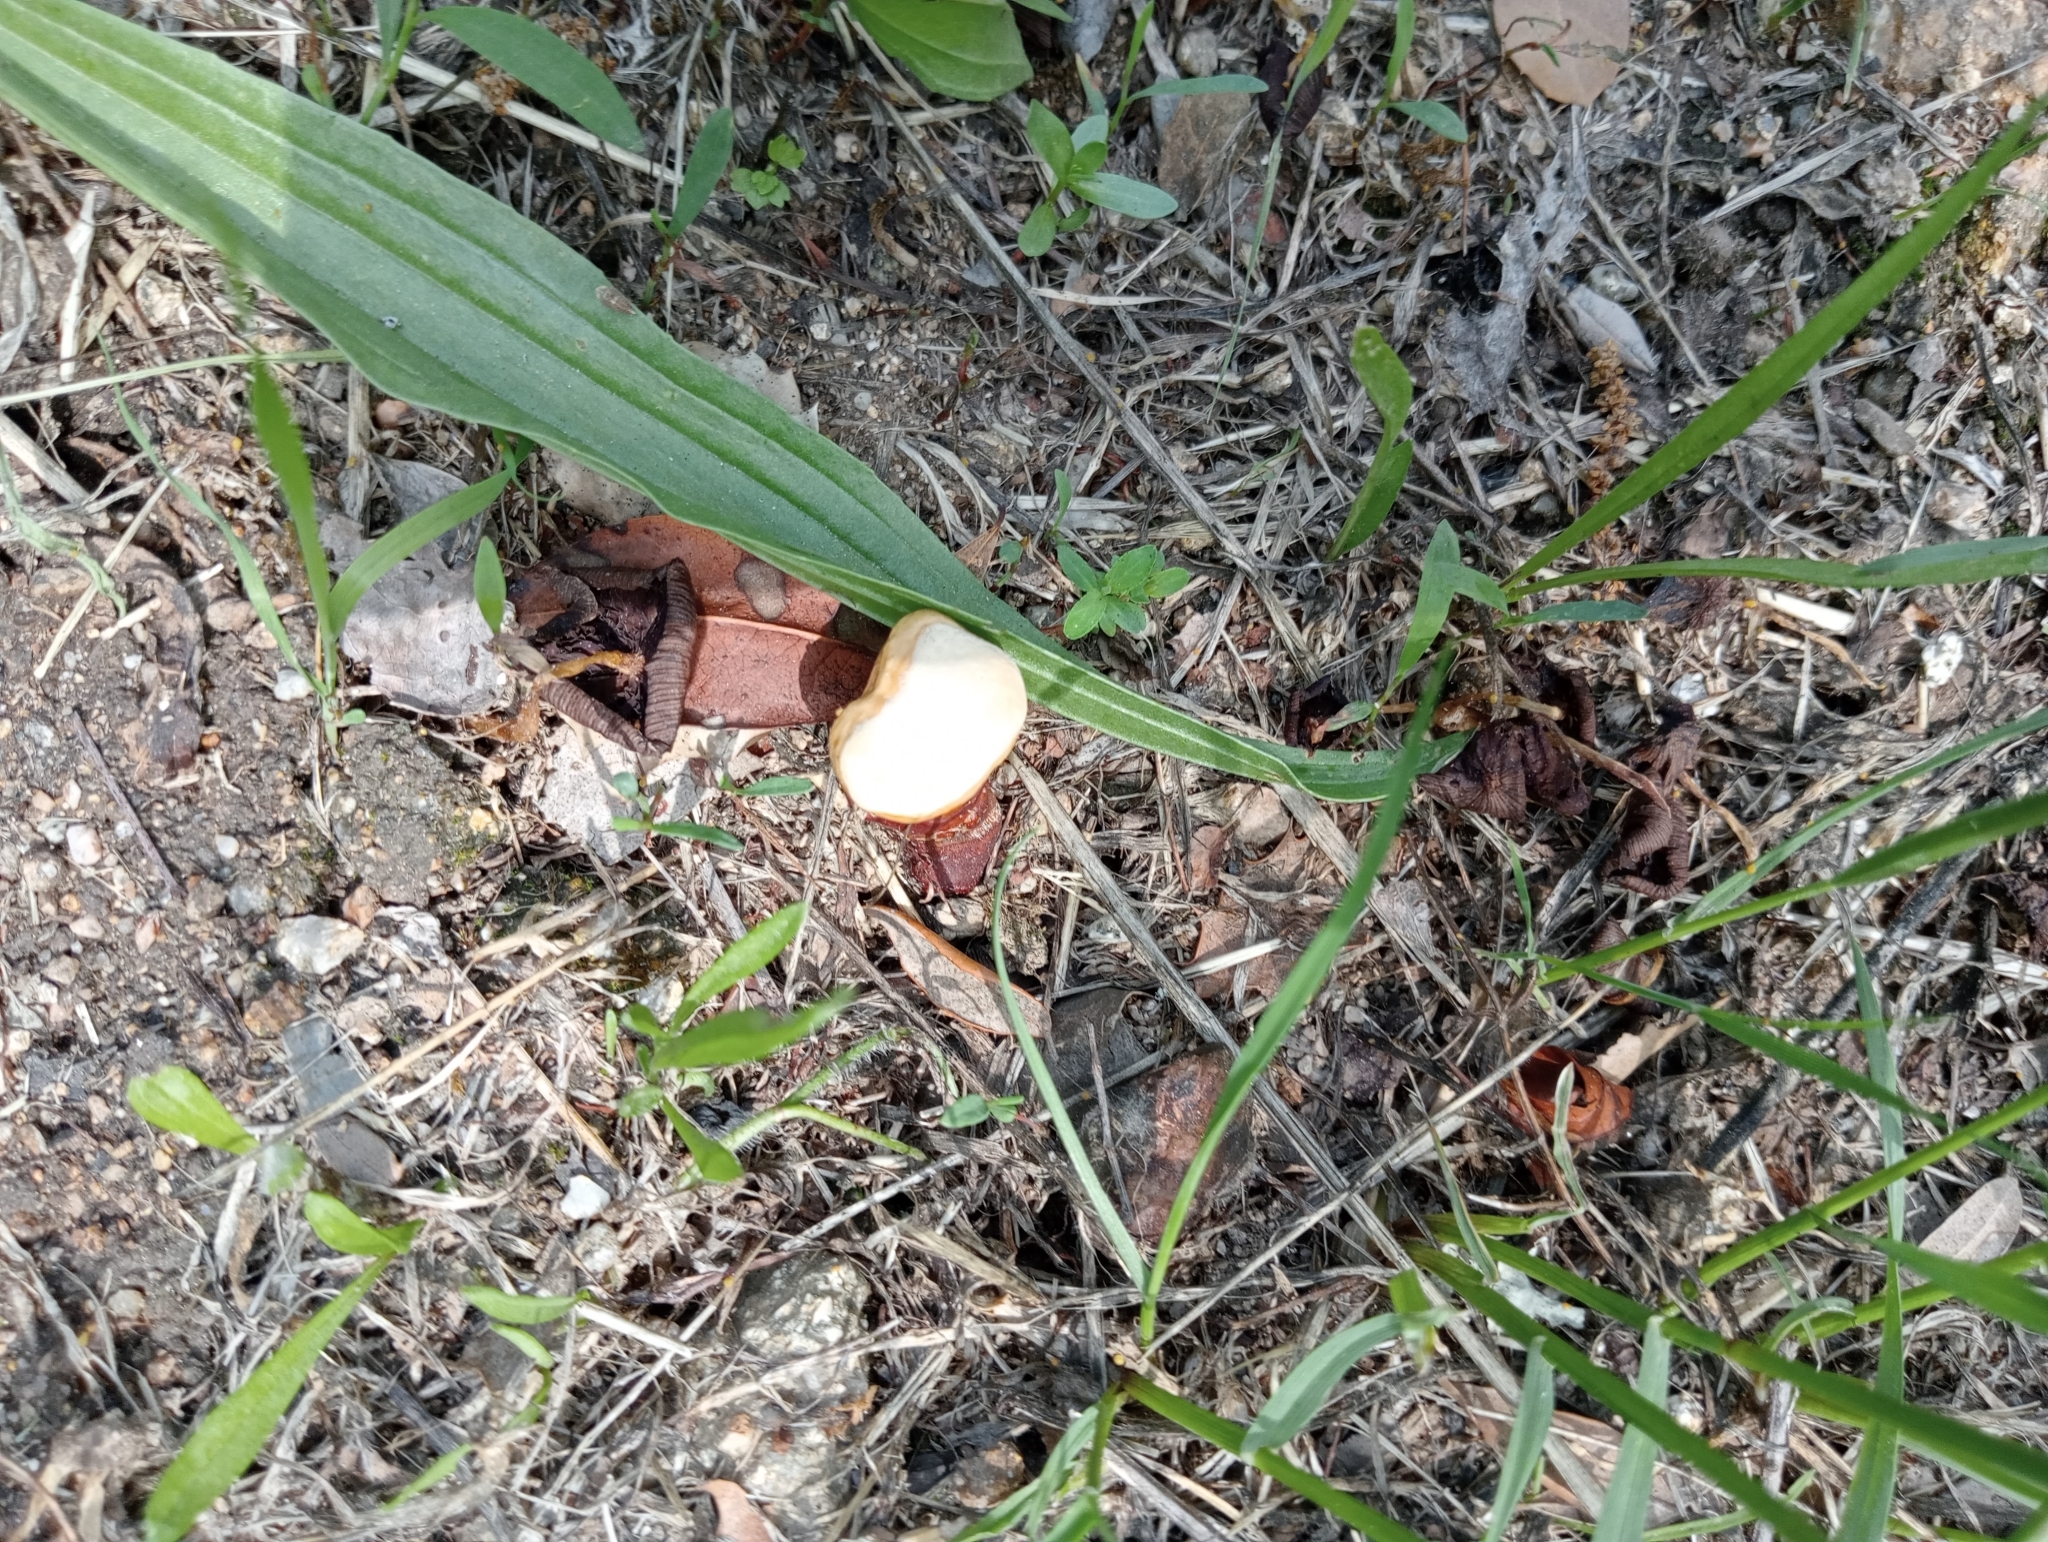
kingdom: Fungi
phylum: Basidiomycota
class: Agaricomycetes
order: Polyporales
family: Polyporaceae
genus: Ganoderma
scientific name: Ganoderma lucidum
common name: Lacquered bracket
